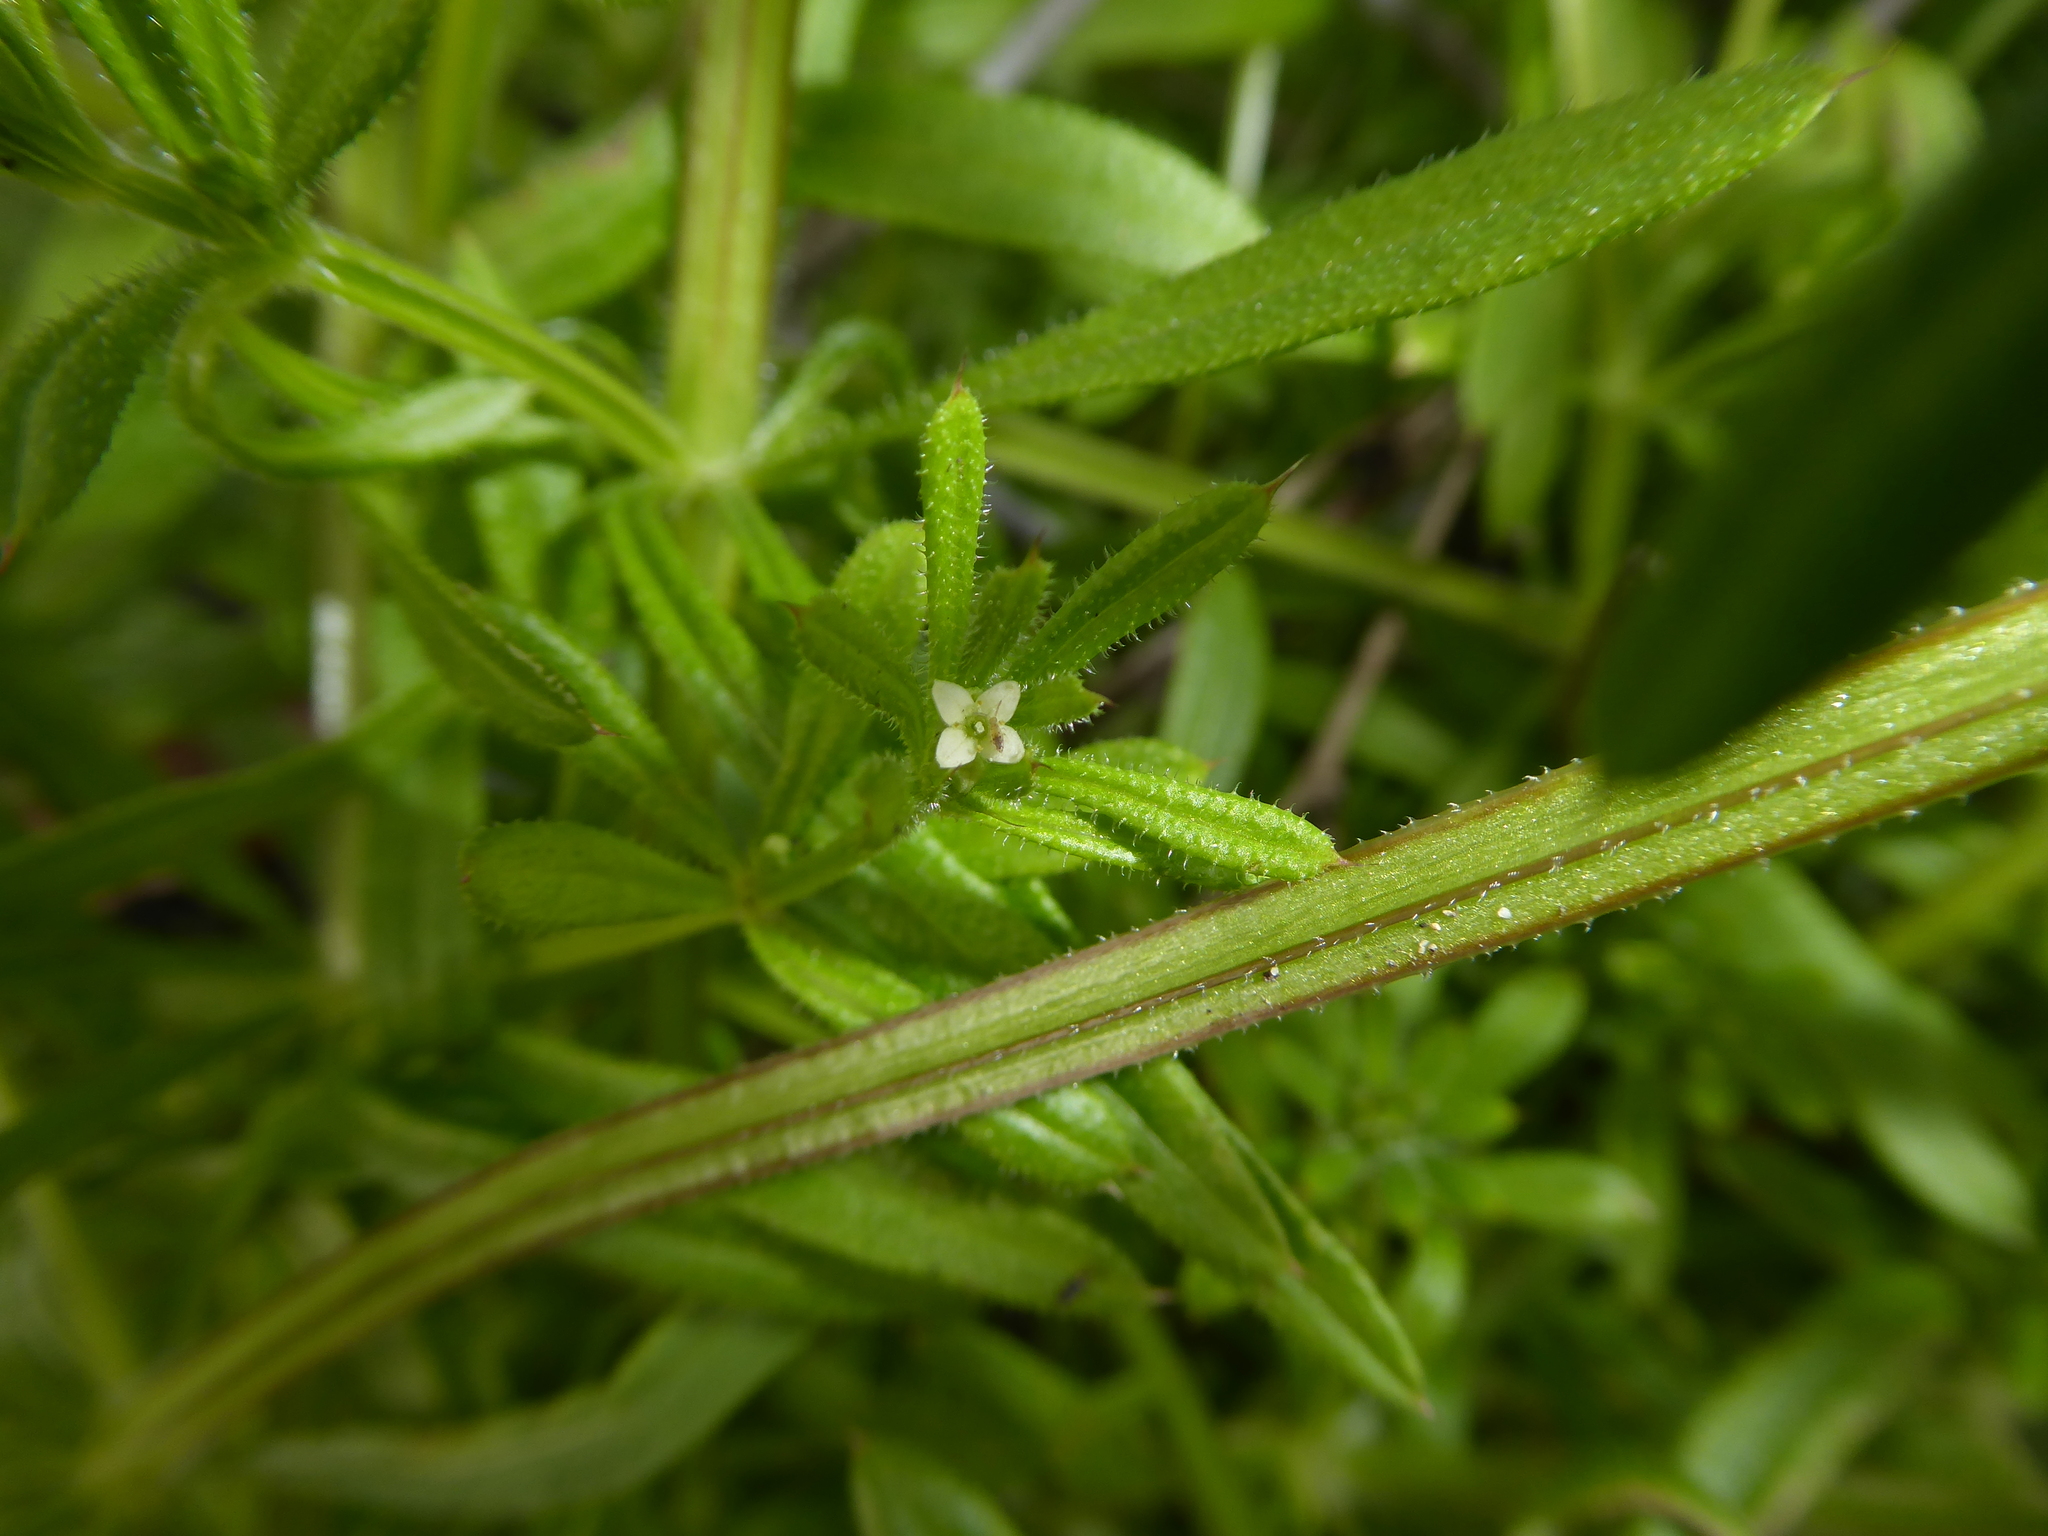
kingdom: Plantae
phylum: Tracheophyta
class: Magnoliopsida
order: Gentianales
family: Rubiaceae
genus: Galium
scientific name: Galium aparine
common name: Cleavers
